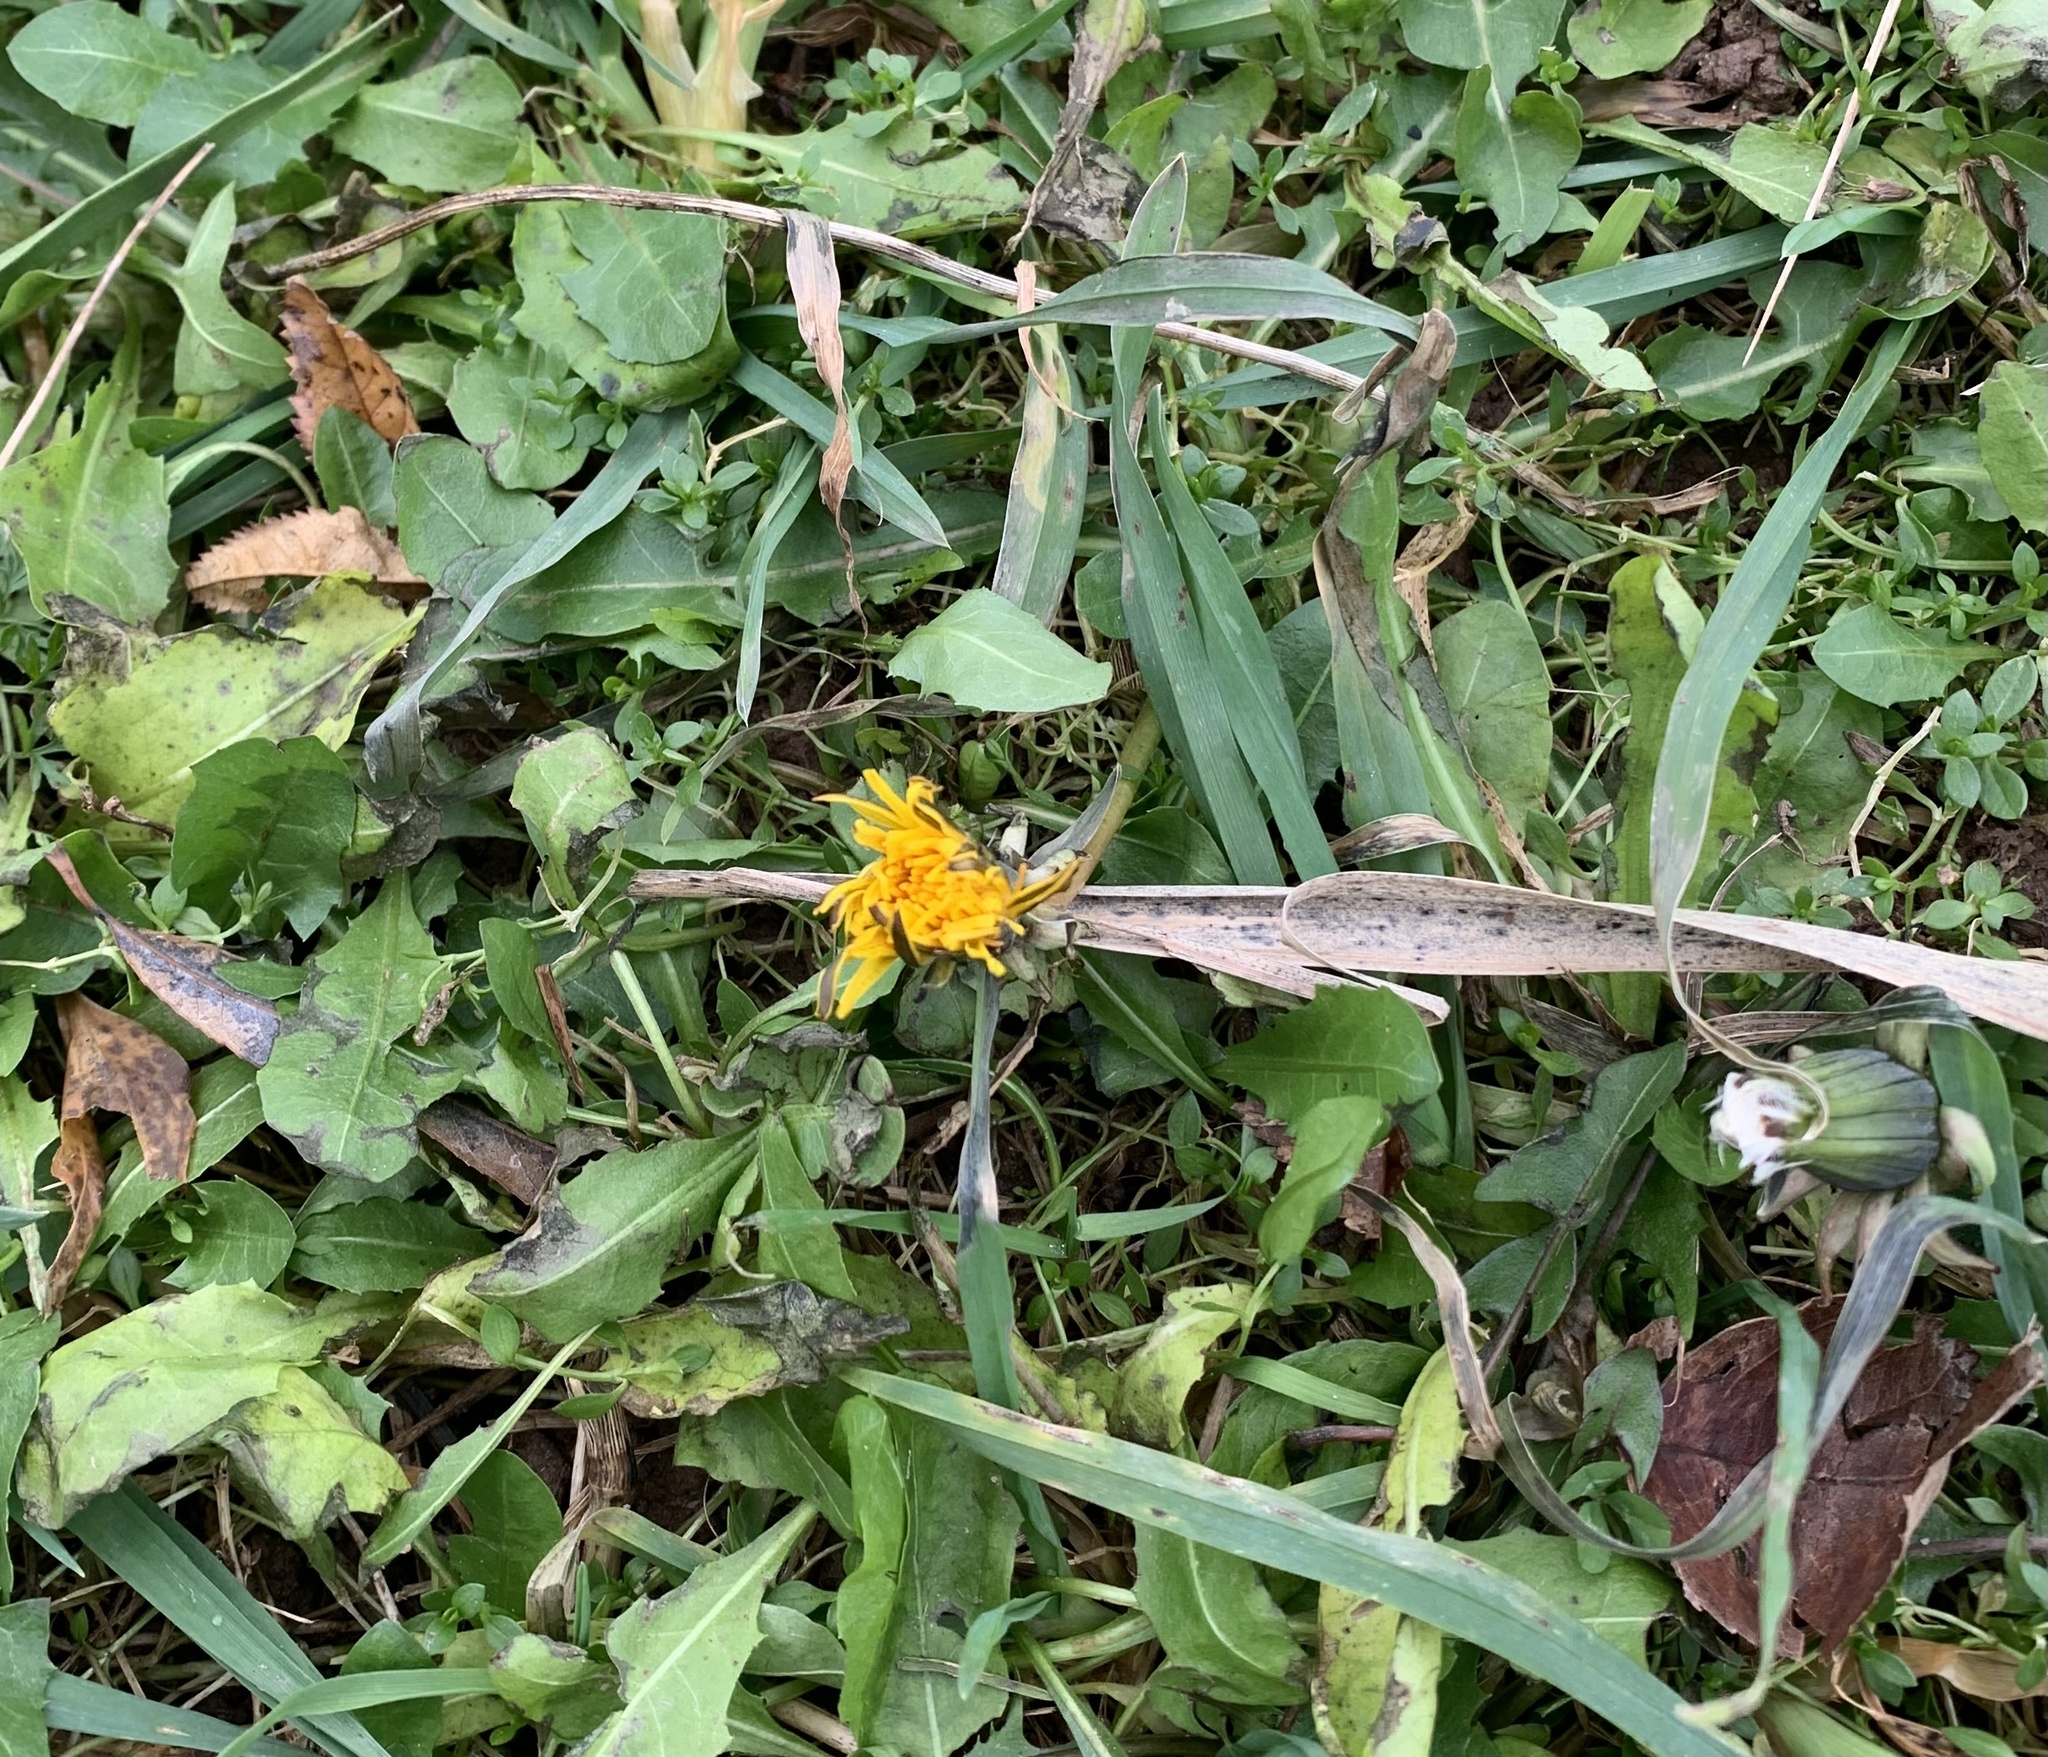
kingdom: Plantae
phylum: Tracheophyta
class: Magnoliopsida
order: Asterales
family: Asteraceae
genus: Taraxacum
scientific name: Taraxacum officinale
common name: Common dandelion
